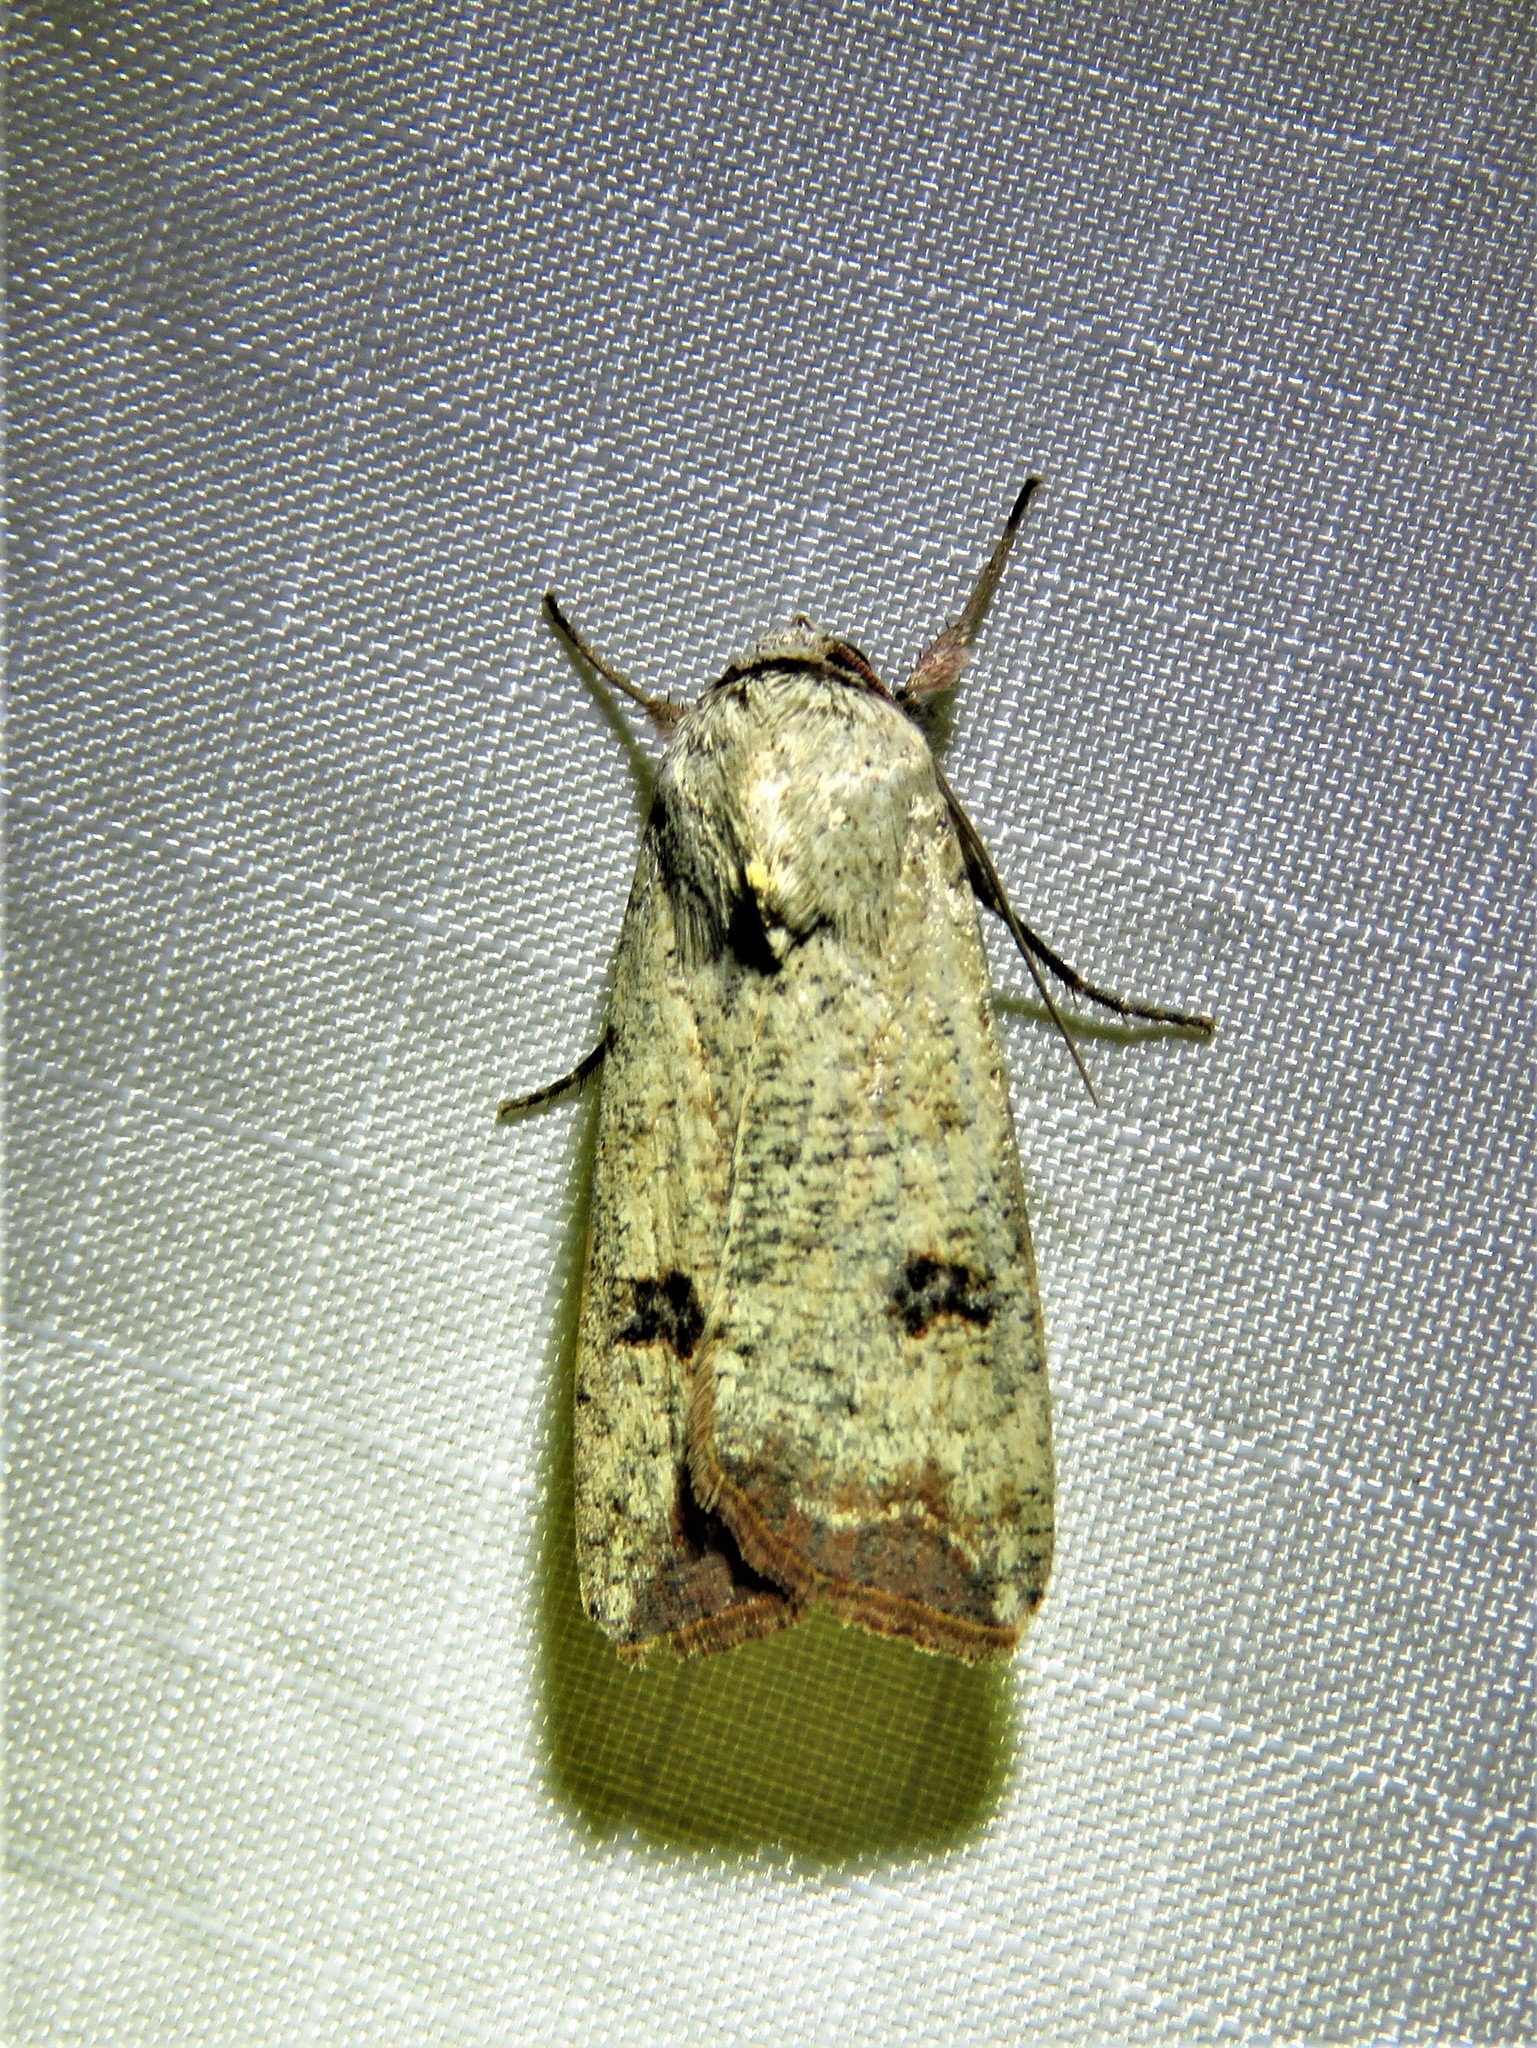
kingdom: Animalia
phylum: Arthropoda
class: Insecta
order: Lepidoptera
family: Noctuidae
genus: Anicla
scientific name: Anicla infecta
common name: Green cutworm
